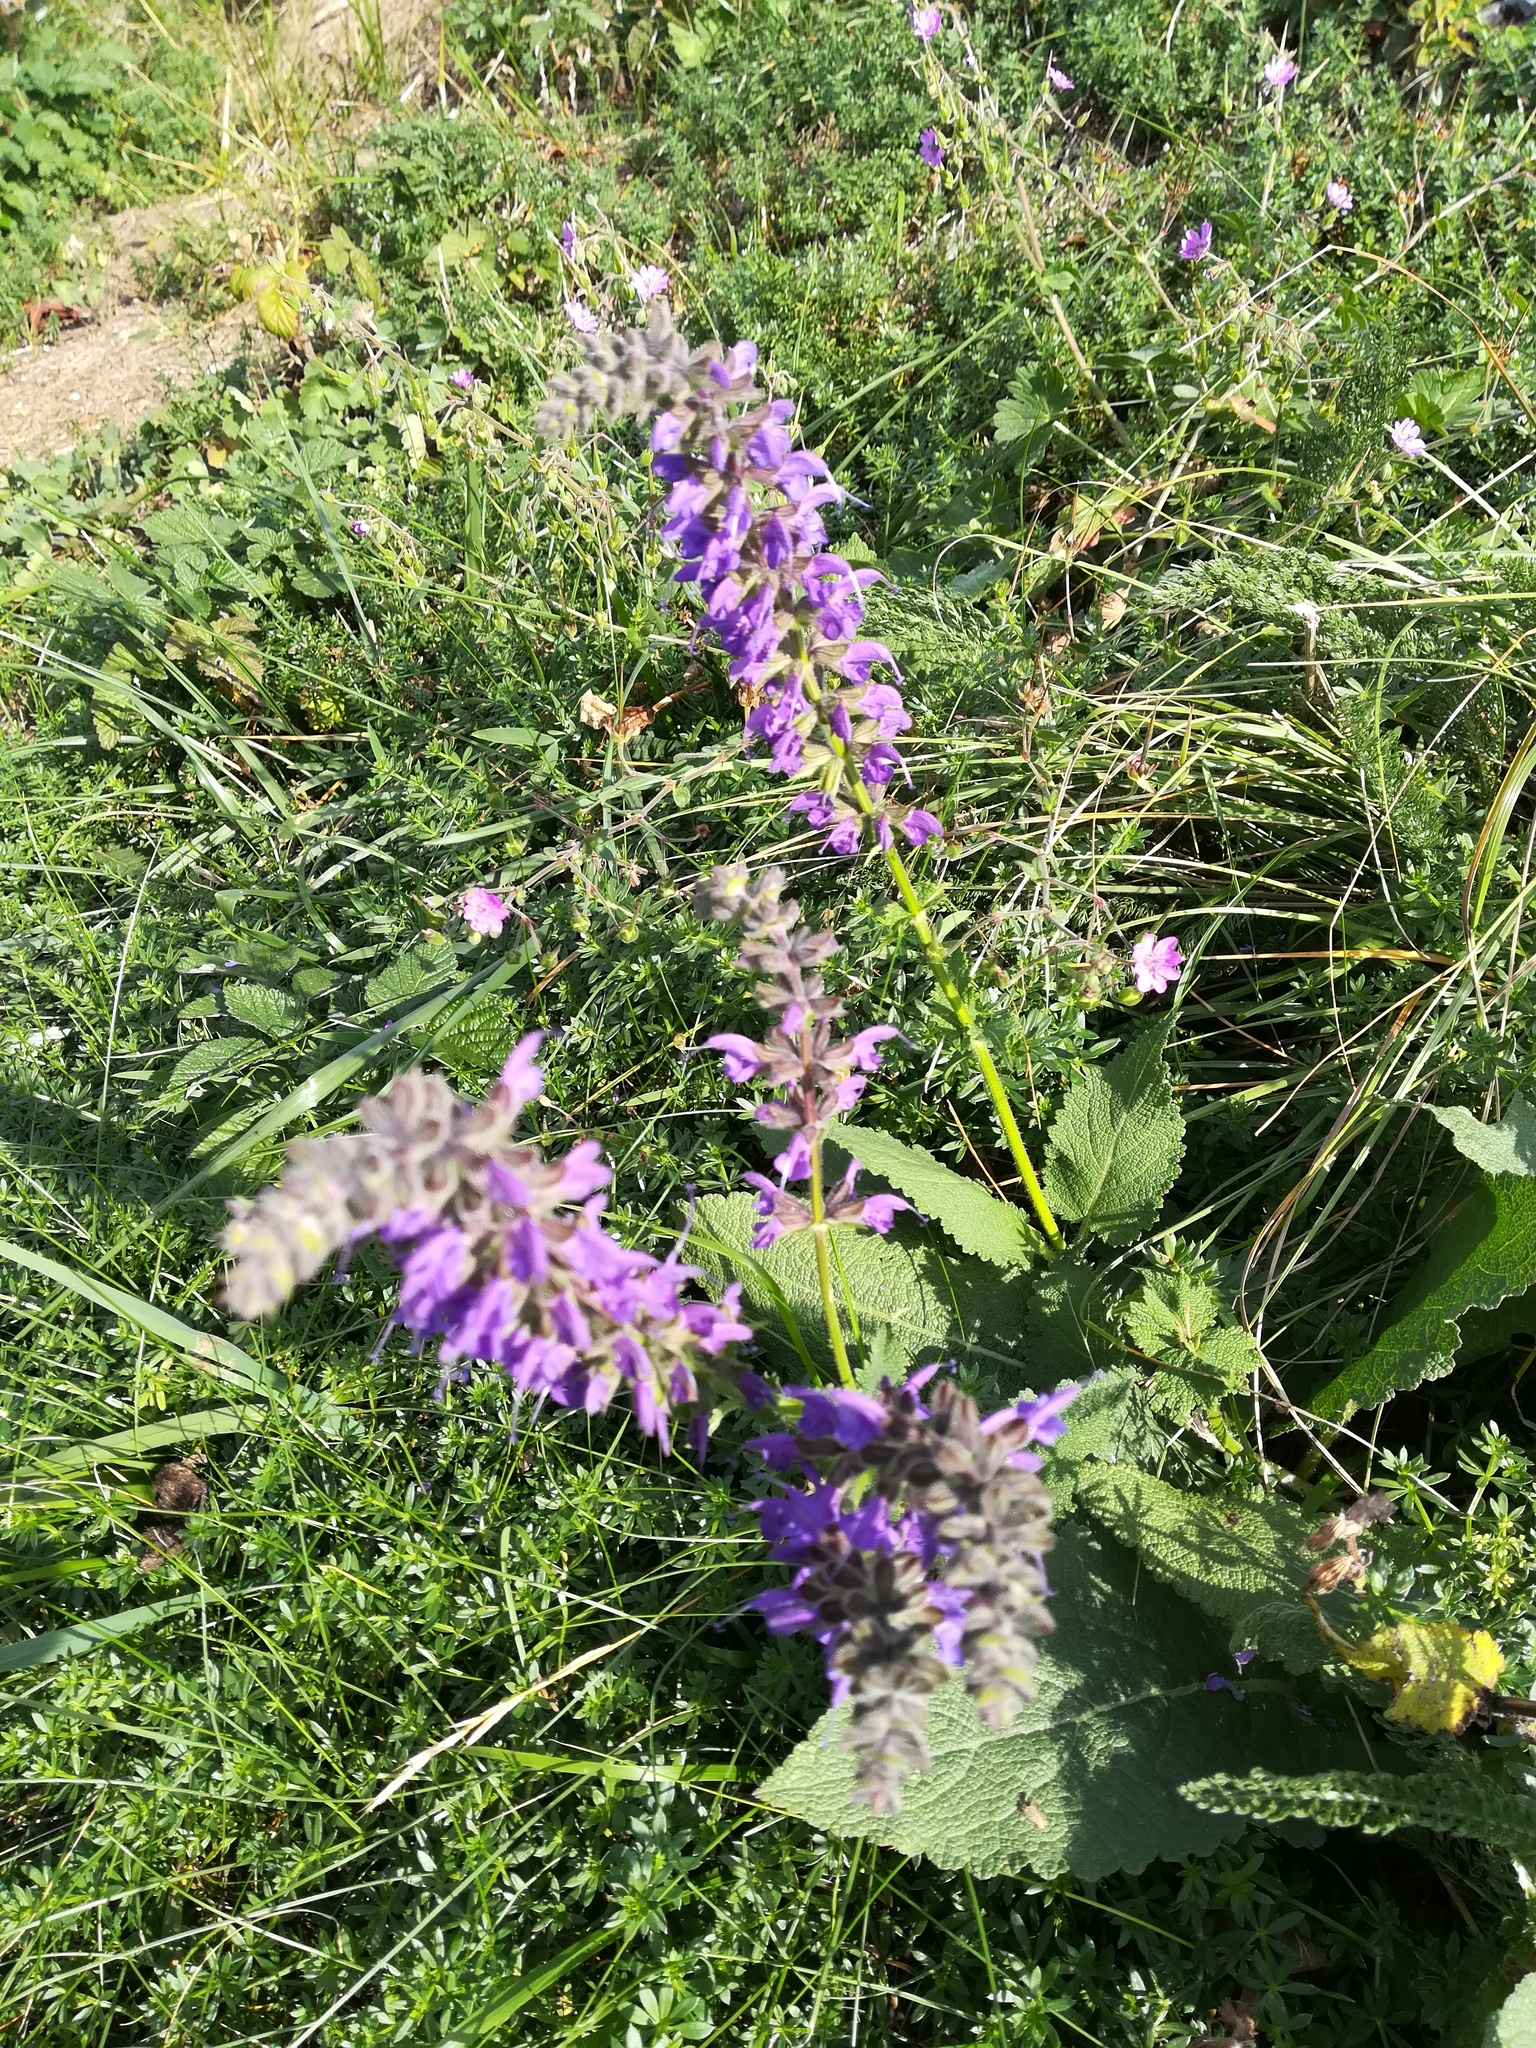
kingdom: Plantae
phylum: Tracheophyta
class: Magnoliopsida
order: Lamiales
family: Lamiaceae
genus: Salvia
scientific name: Salvia pratensis
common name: Meadow sage
